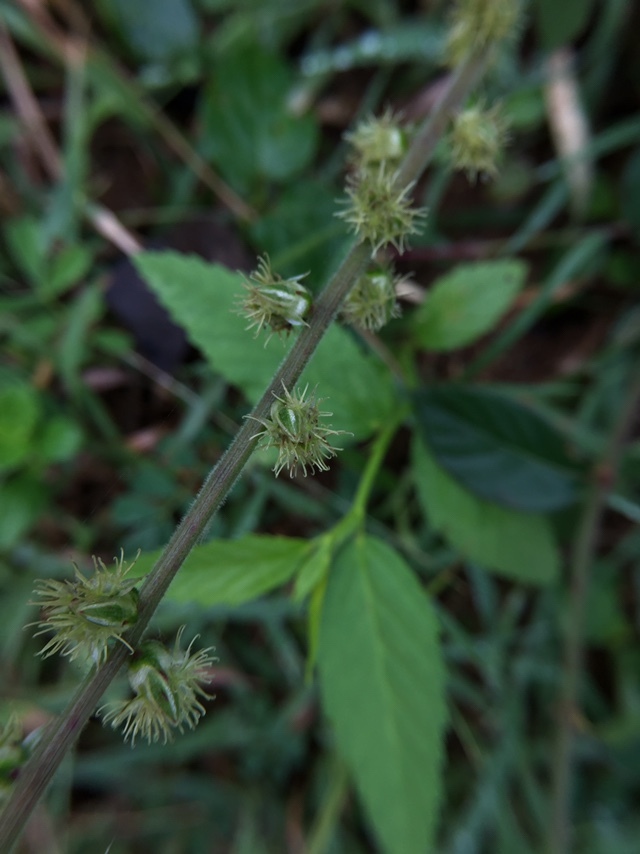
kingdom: Plantae
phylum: Tracheophyta
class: Magnoliopsida
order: Caryophyllales
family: Amaranthaceae
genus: Pupalia
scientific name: Pupalia lappacea
